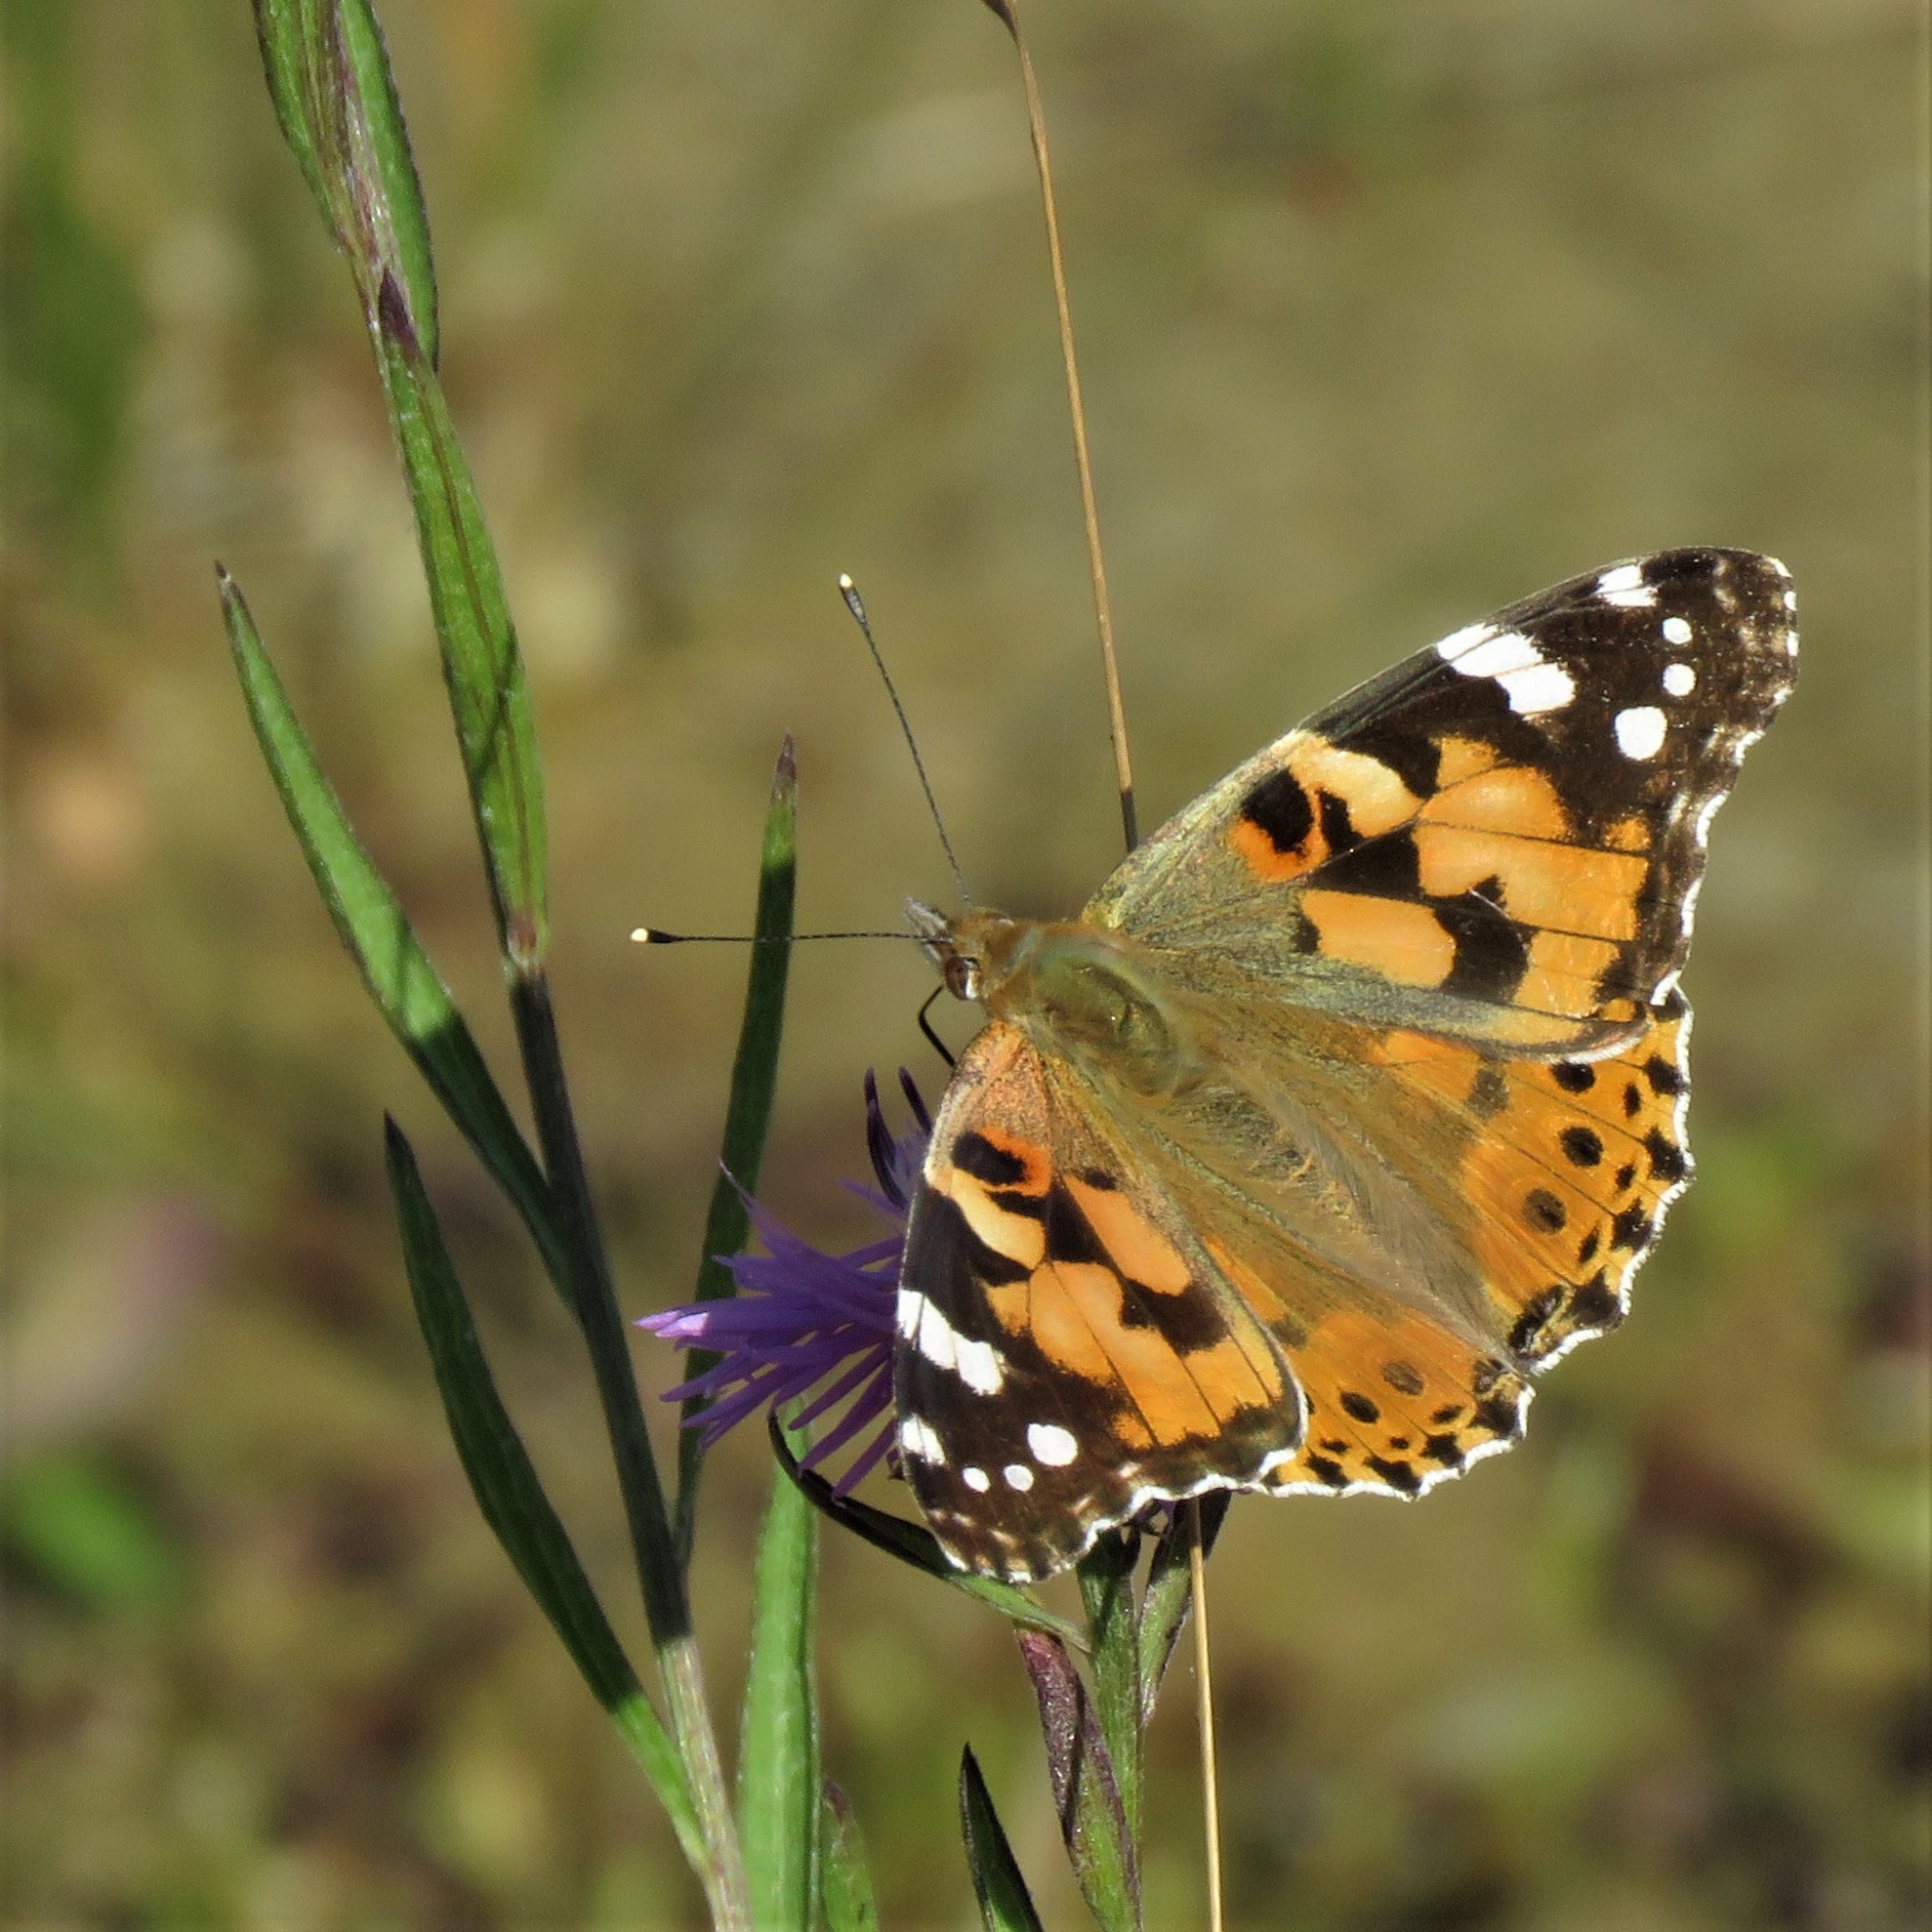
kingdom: Animalia
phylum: Arthropoda
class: Insecta
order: Lepidoptera
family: Nymphalidae
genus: Vanessa
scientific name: Vanessa cardui
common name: Painted lady
